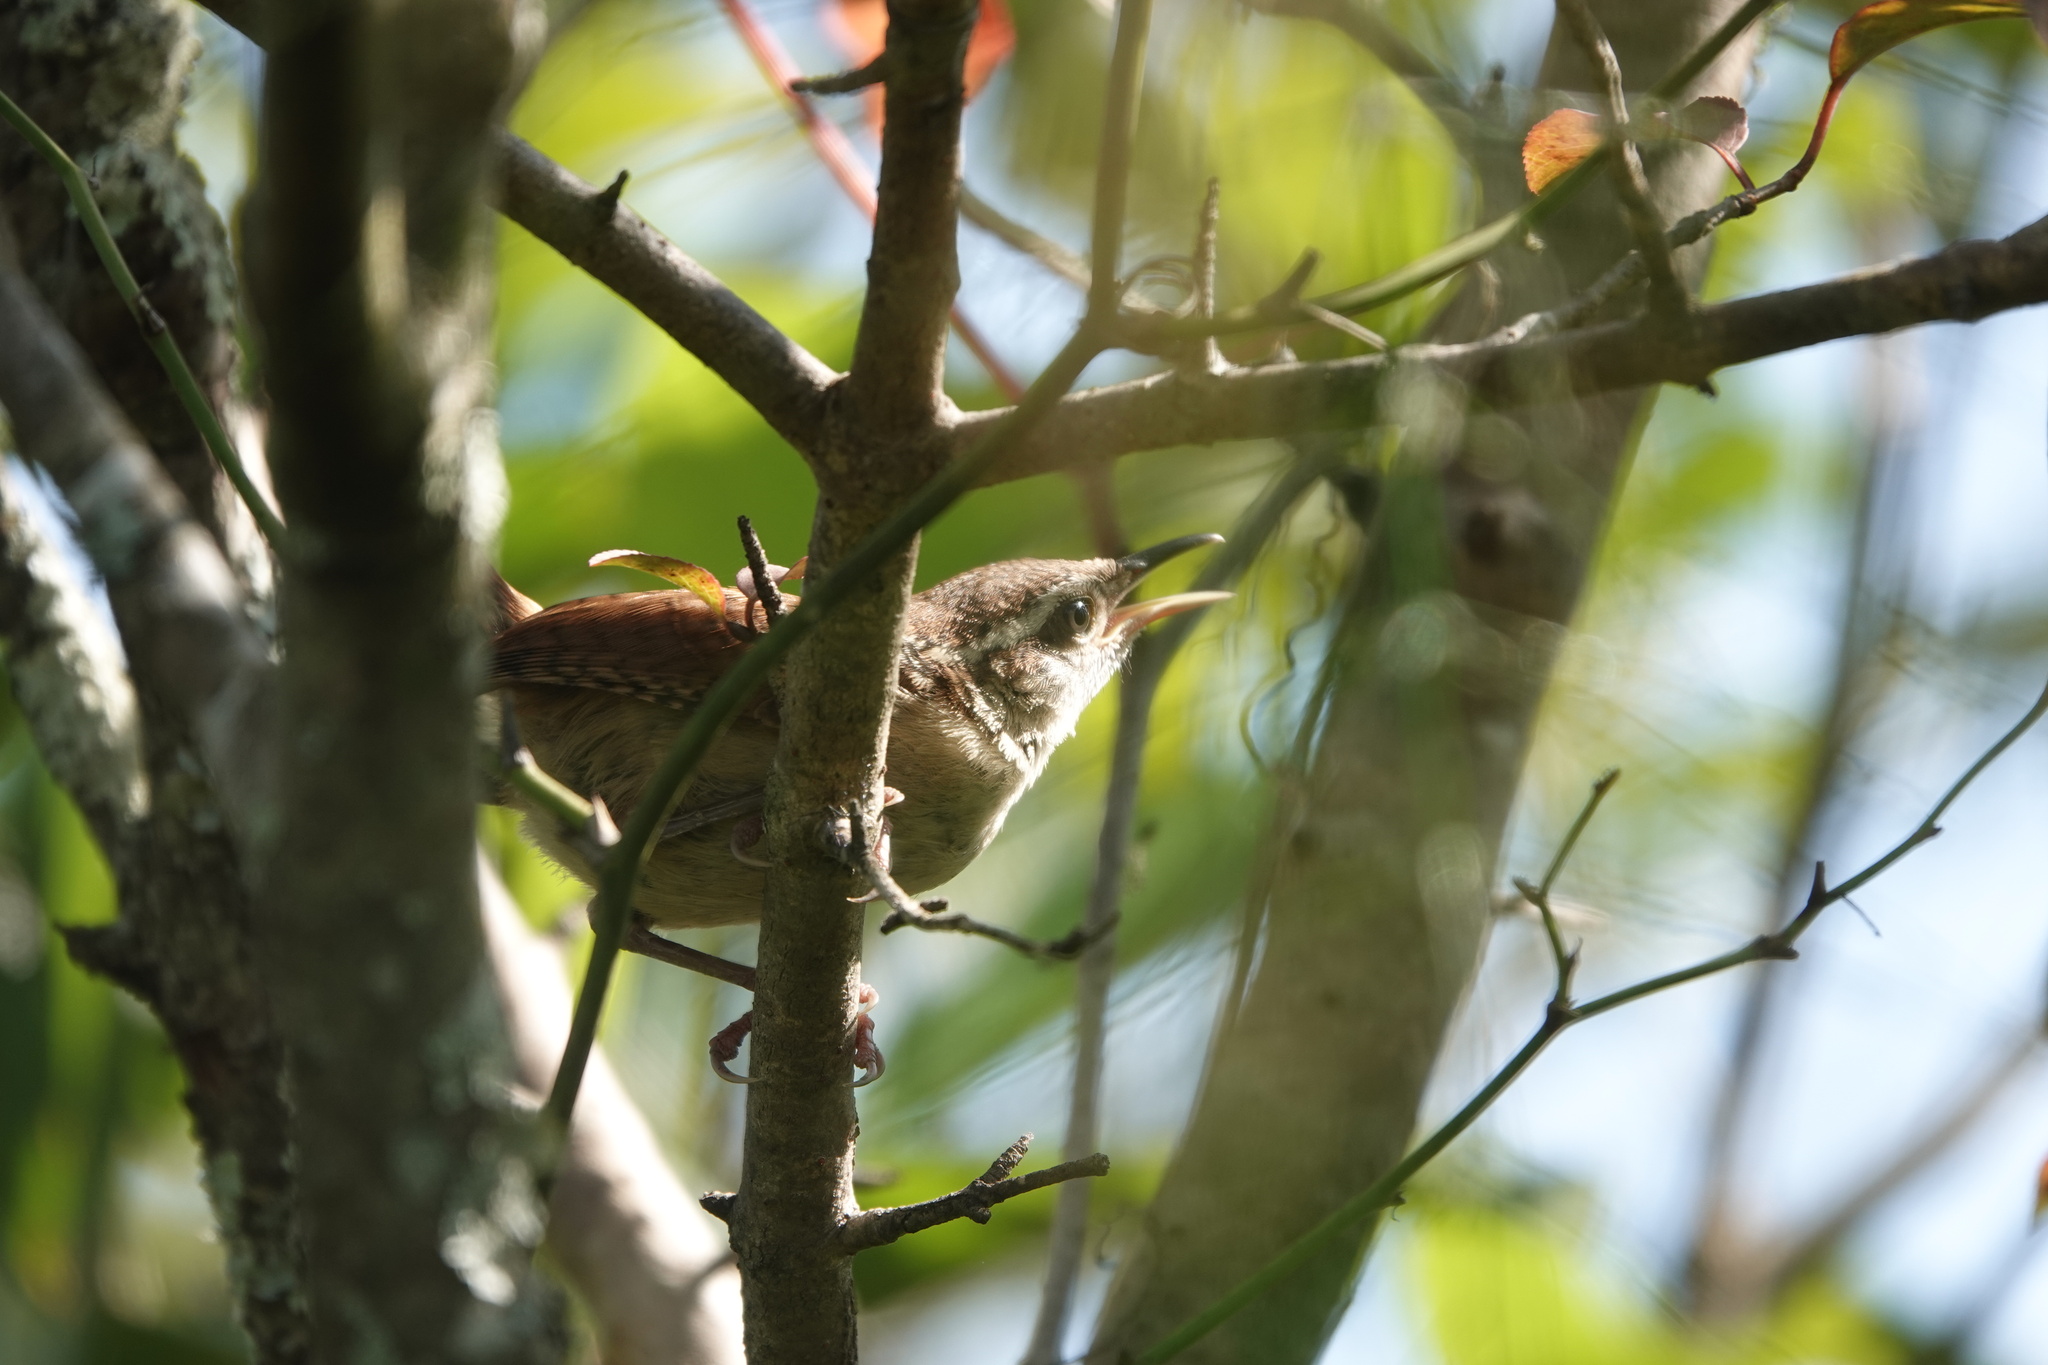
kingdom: Animalia
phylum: Chordata
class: Aves
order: Passeriformes
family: Troglodytidae
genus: Thryothorus
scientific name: Thryothorus ludovicianus
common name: Carolina wren
